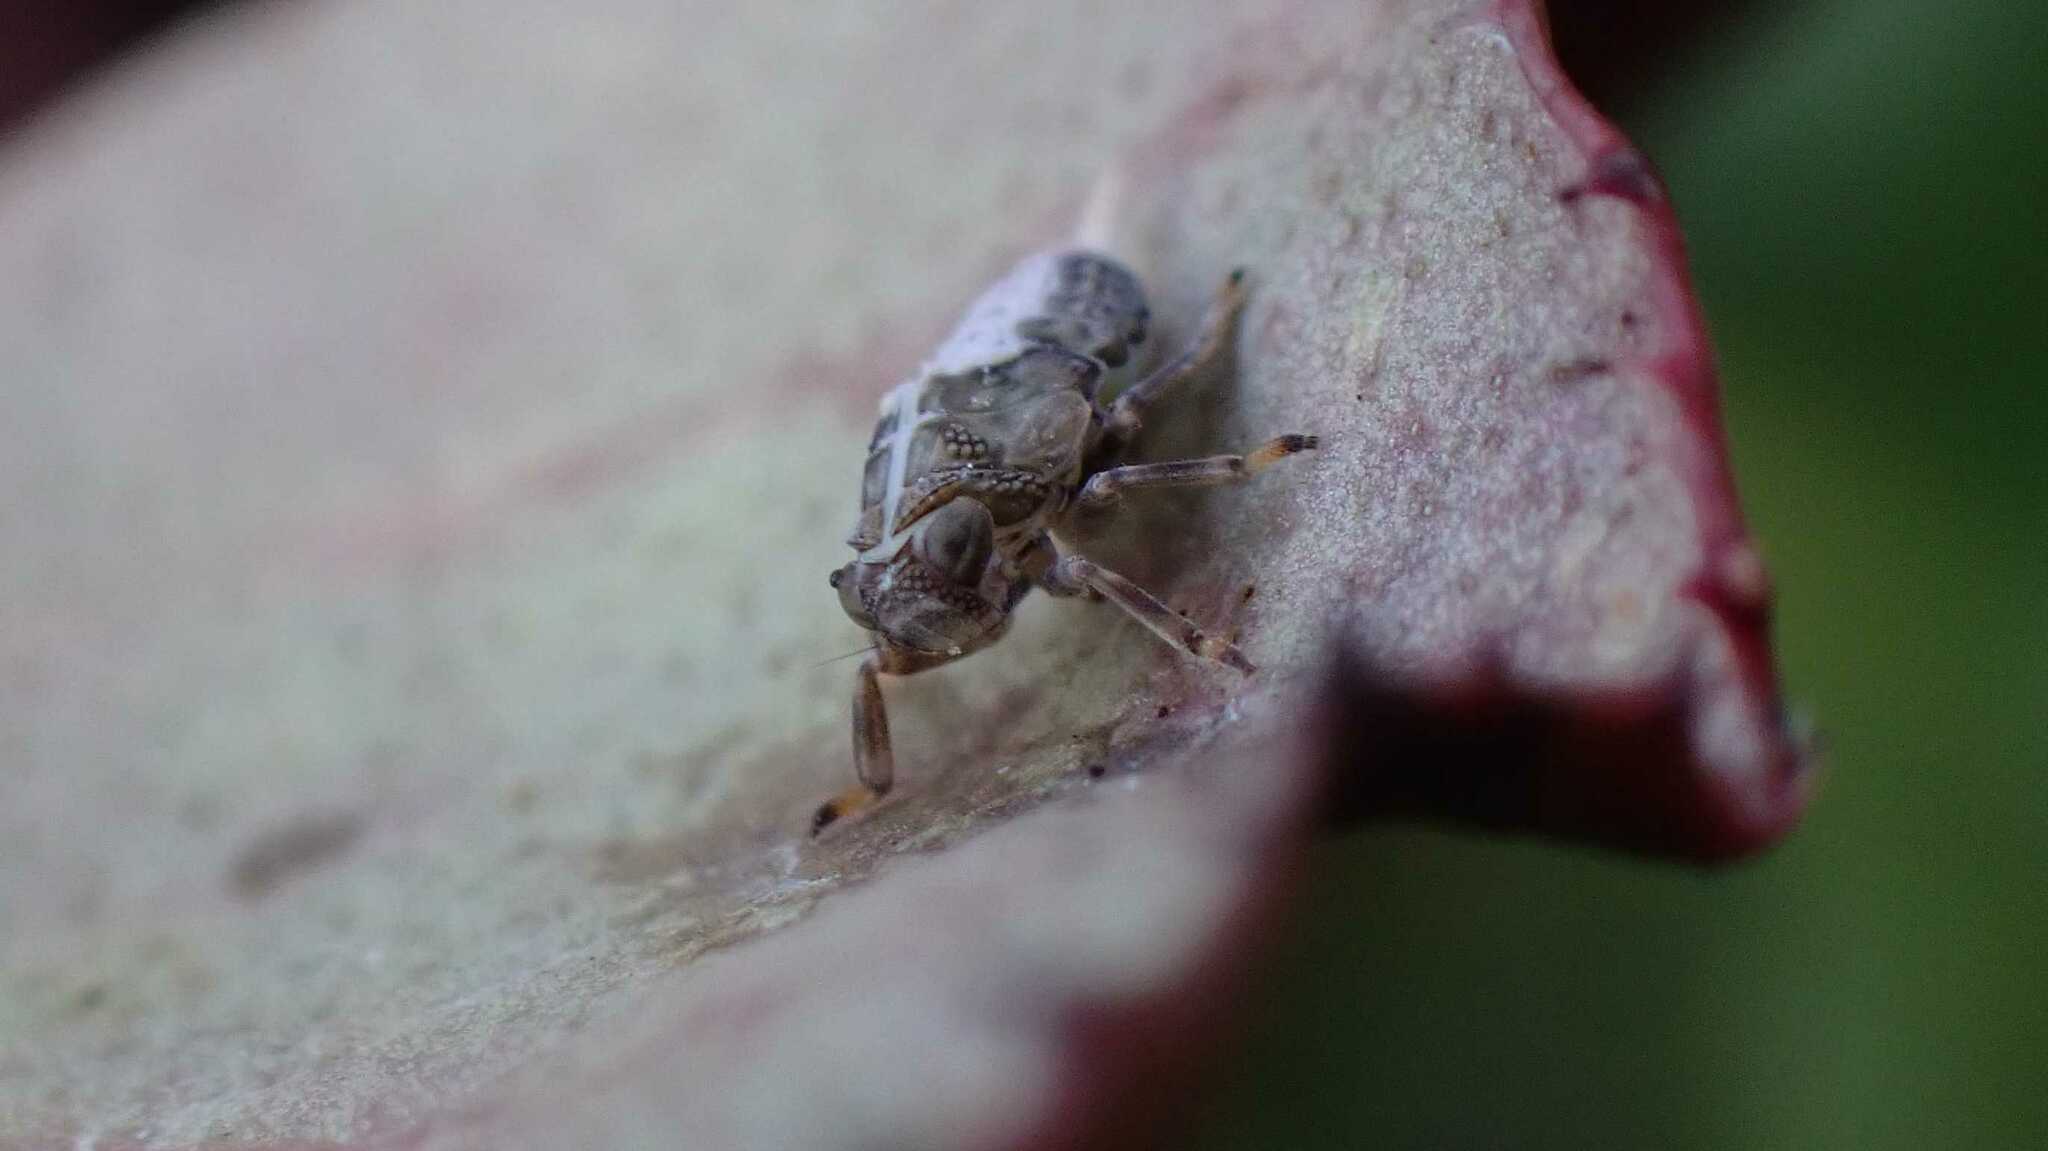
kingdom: Animalia
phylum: Arthropoda
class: Insecta
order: Hemiptera
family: Issidae
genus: Issus
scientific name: Issus coleoptratus
